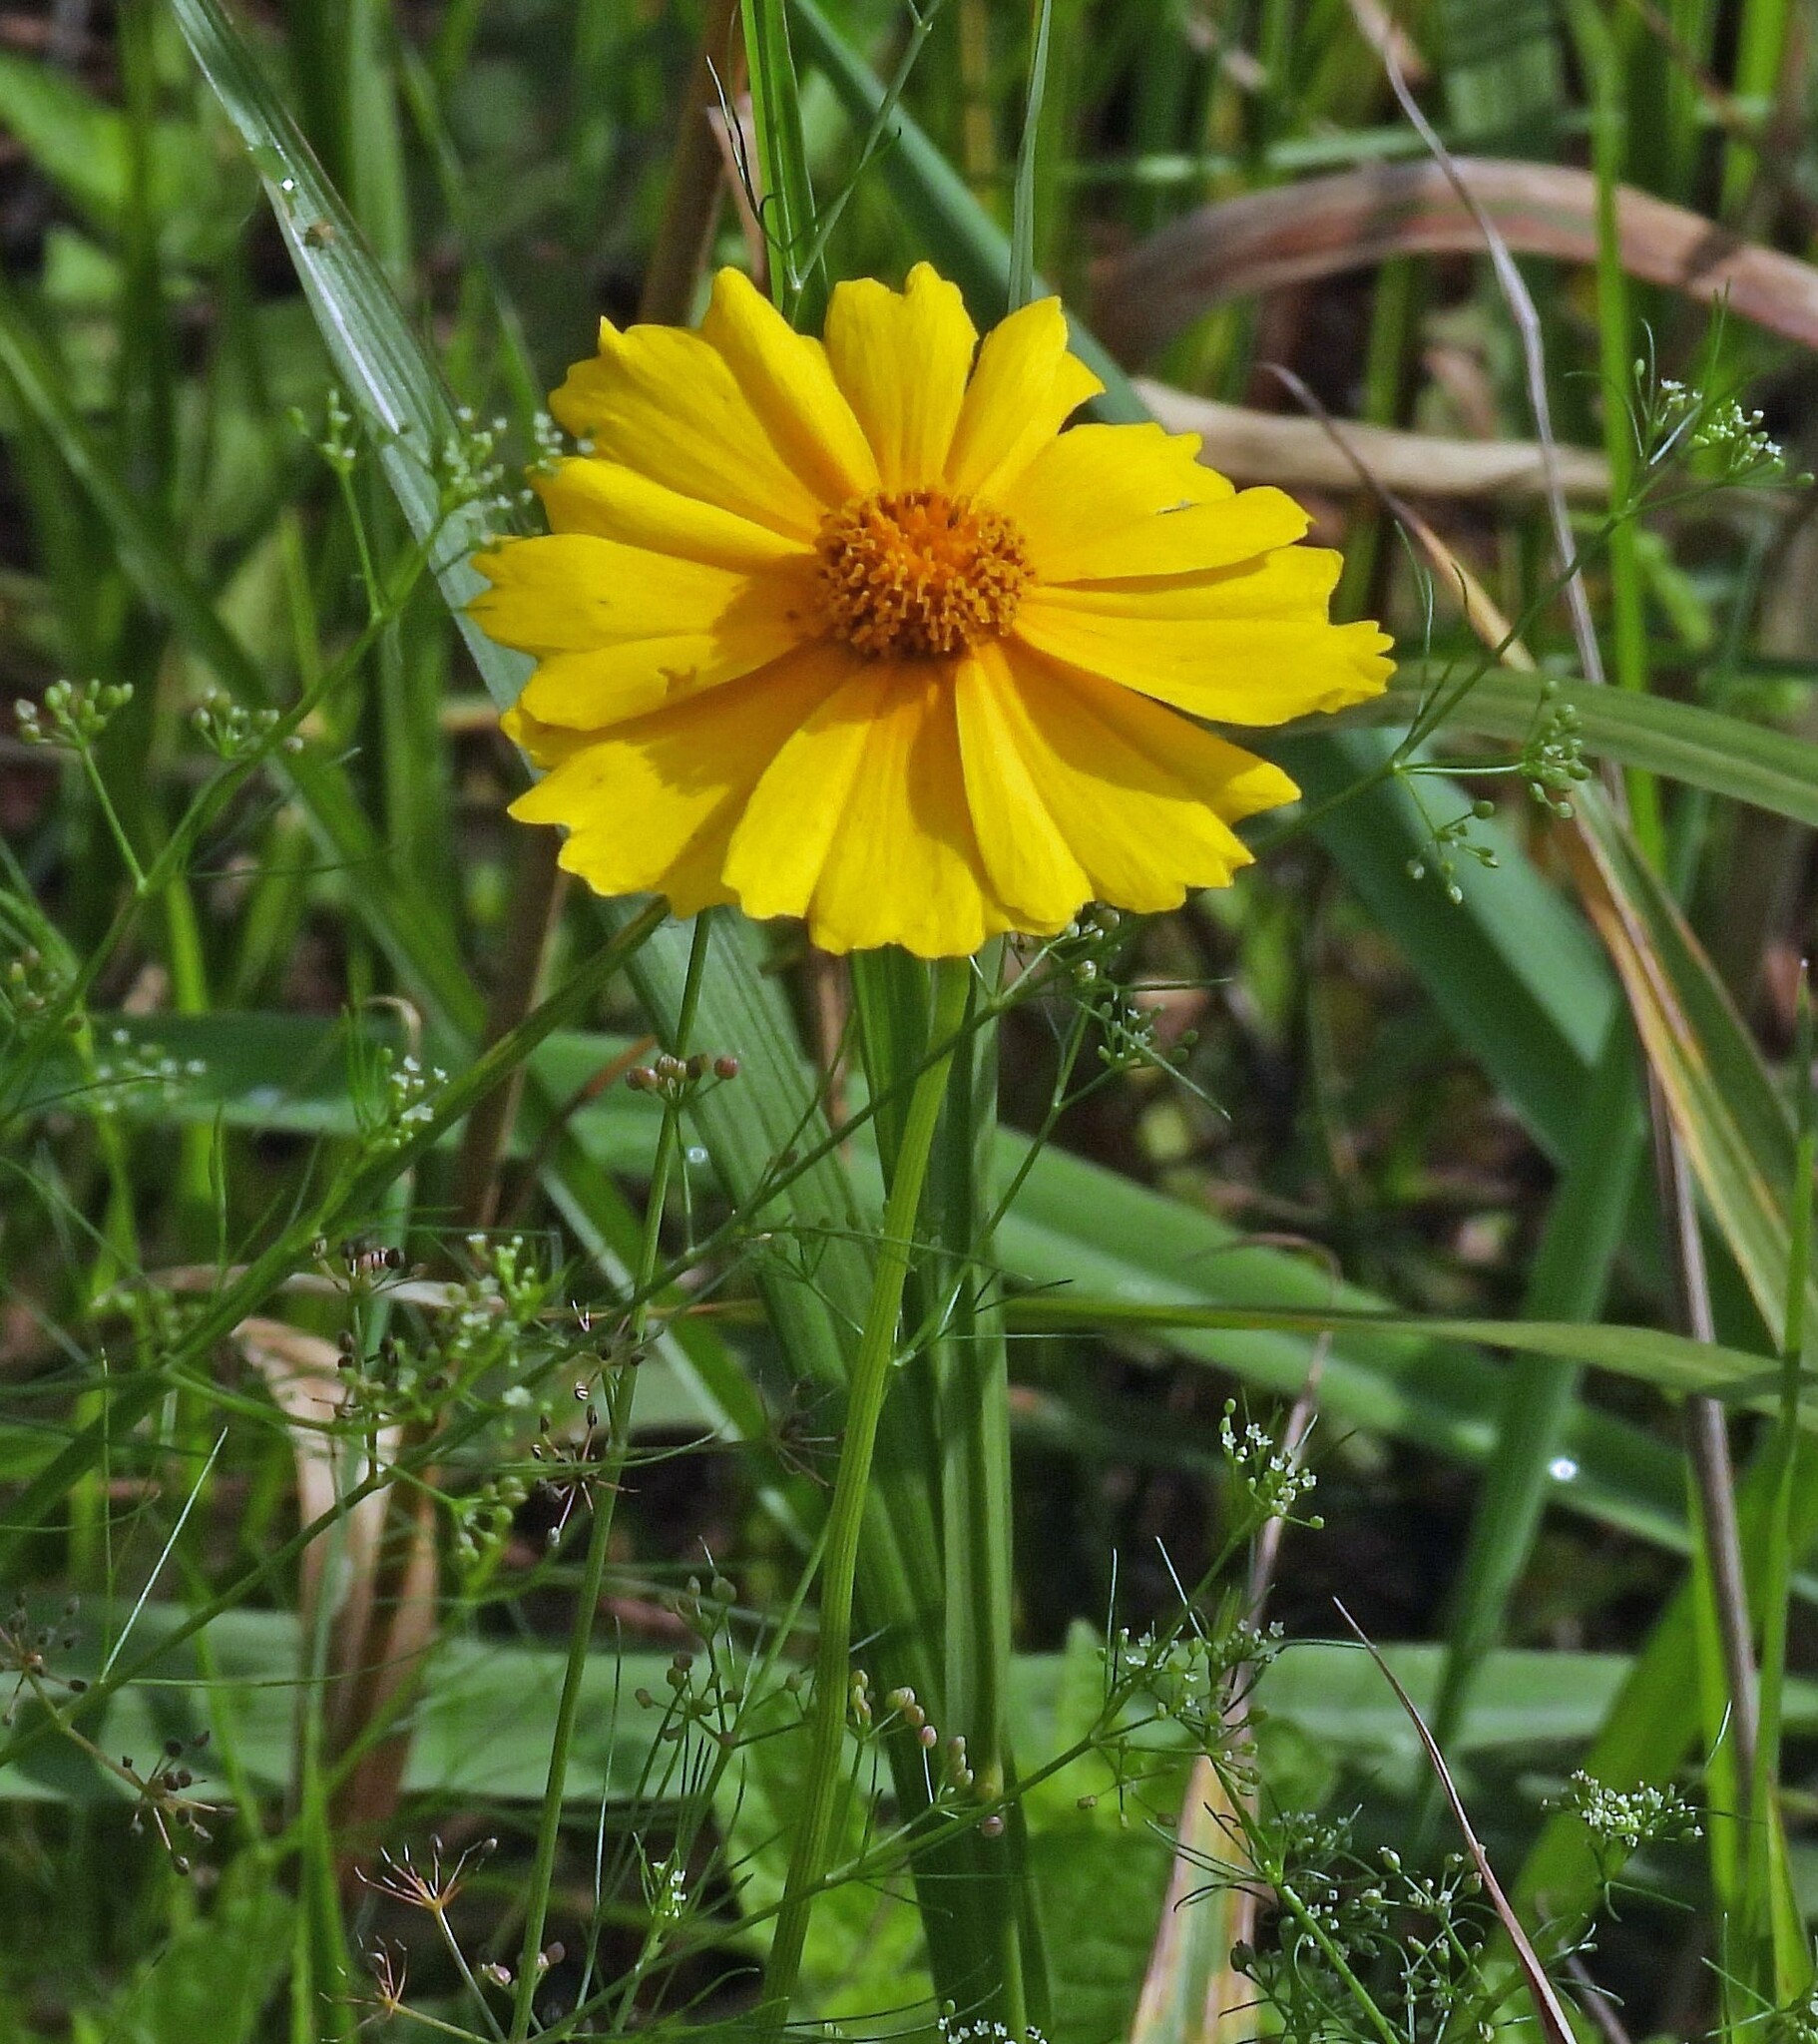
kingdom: Plantae
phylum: Tracheophyta
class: Magnoliopsida
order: Asterales
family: Asteraceae
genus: Coreopsis
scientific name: Coreopsis lanceolata
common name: Garden coreopsis
